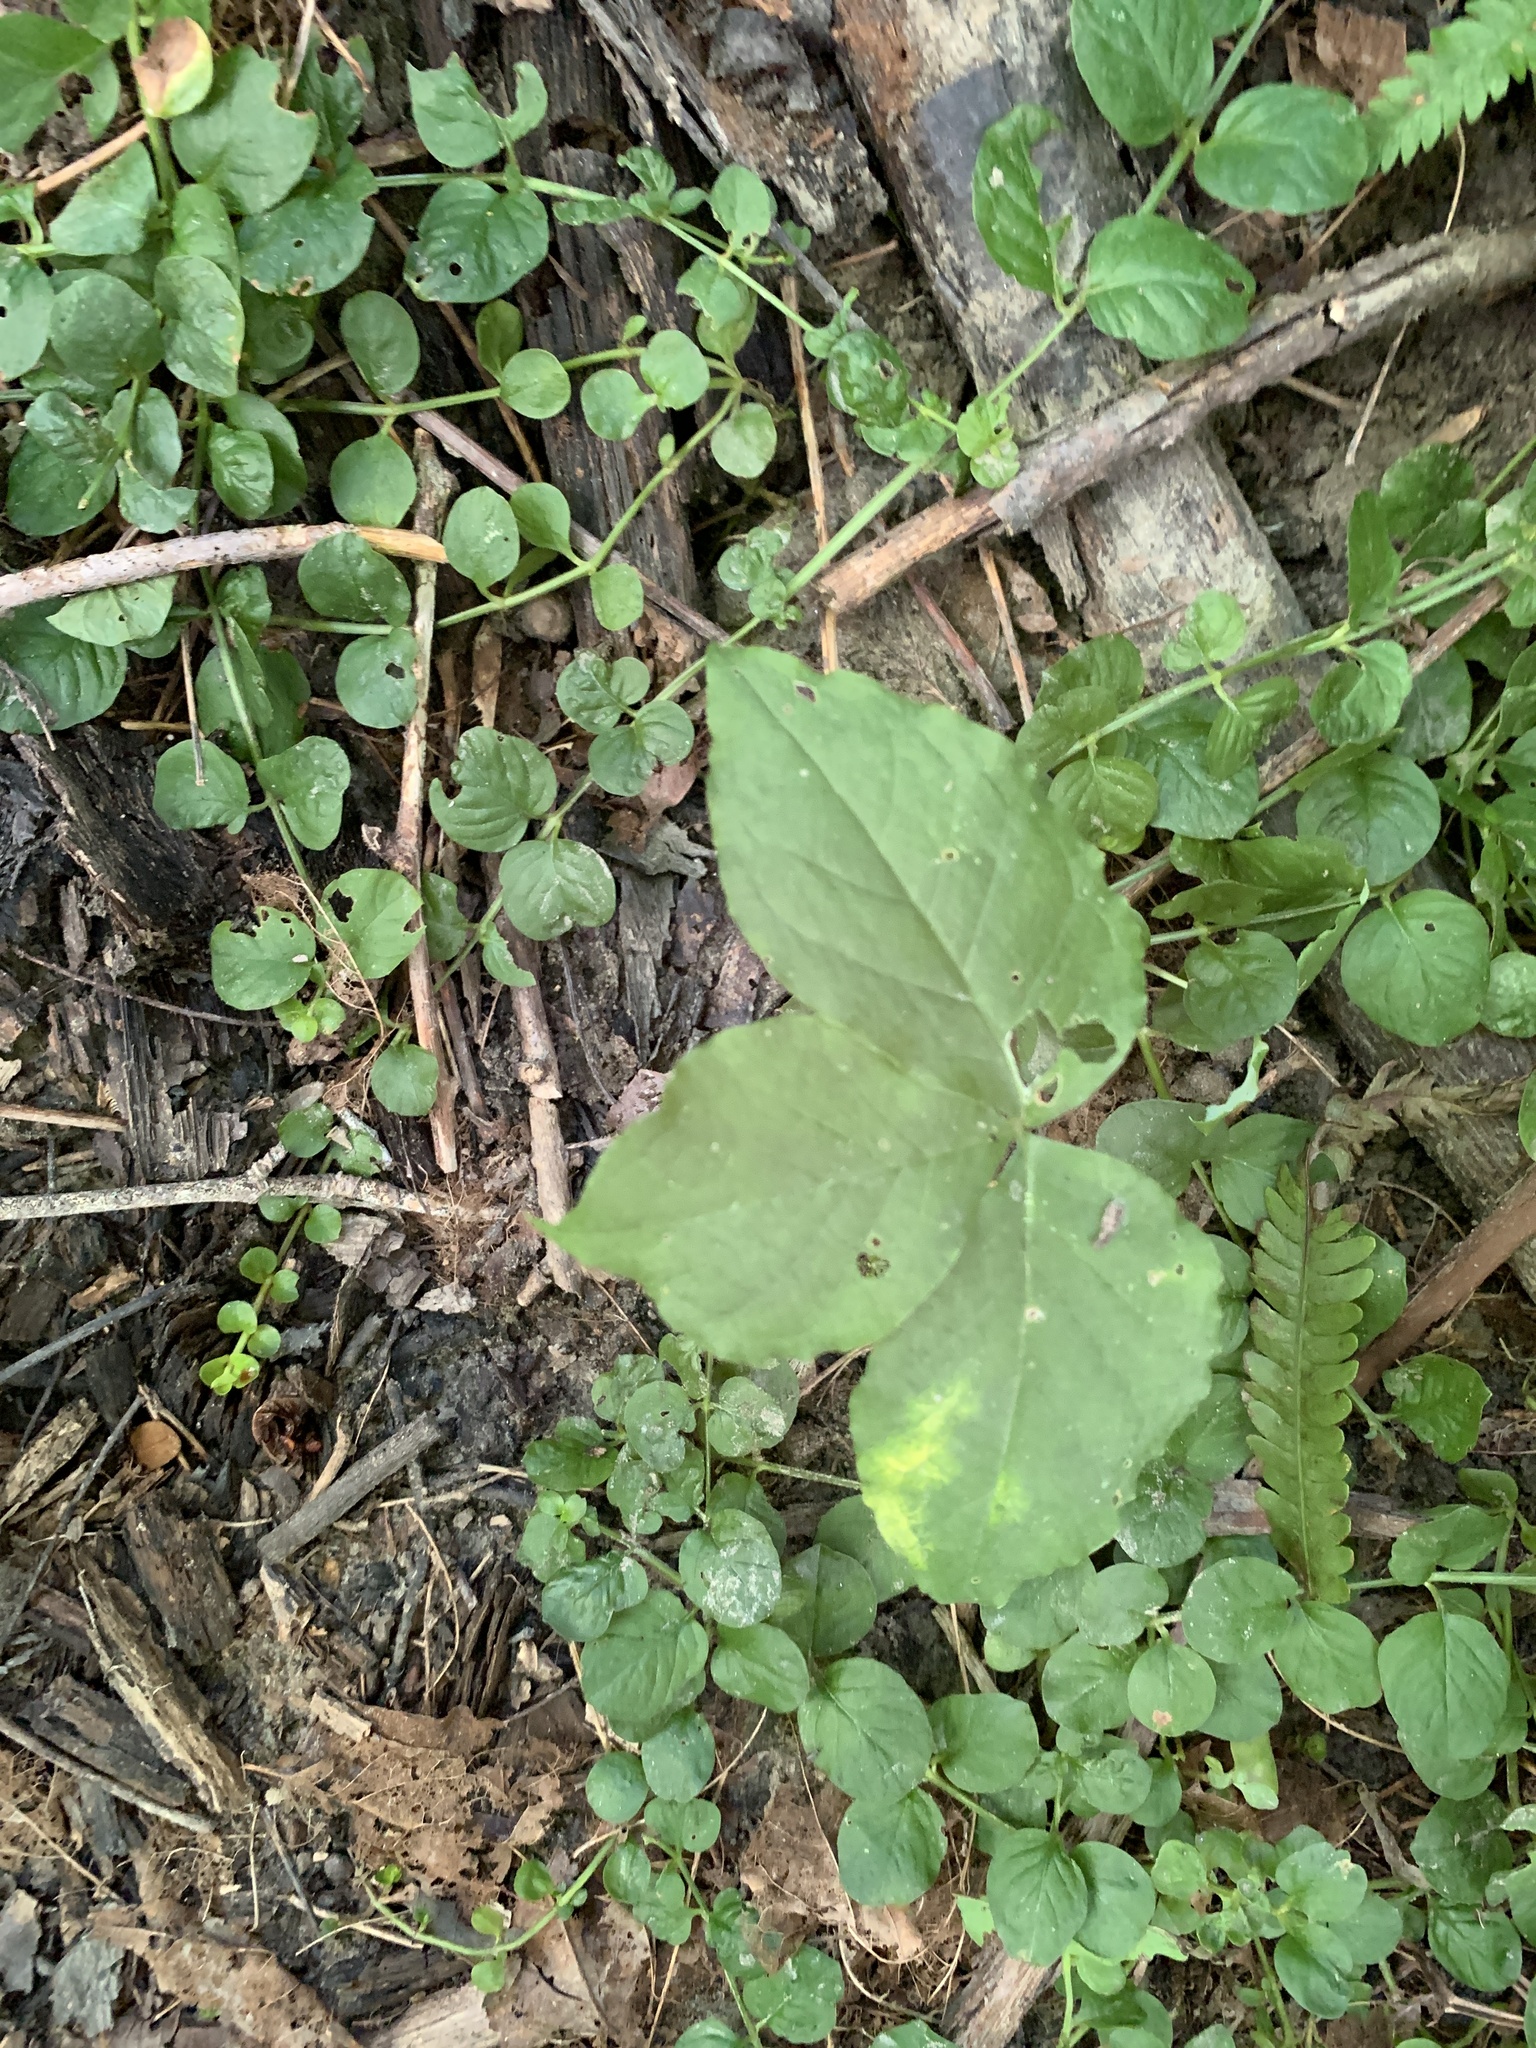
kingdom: Plantae
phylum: Tracheophyta
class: Liliopsida
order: Alismatales
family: Araceae
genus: Arisaema
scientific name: Arisaema triphyllum
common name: Jack-in-the-pulpit
